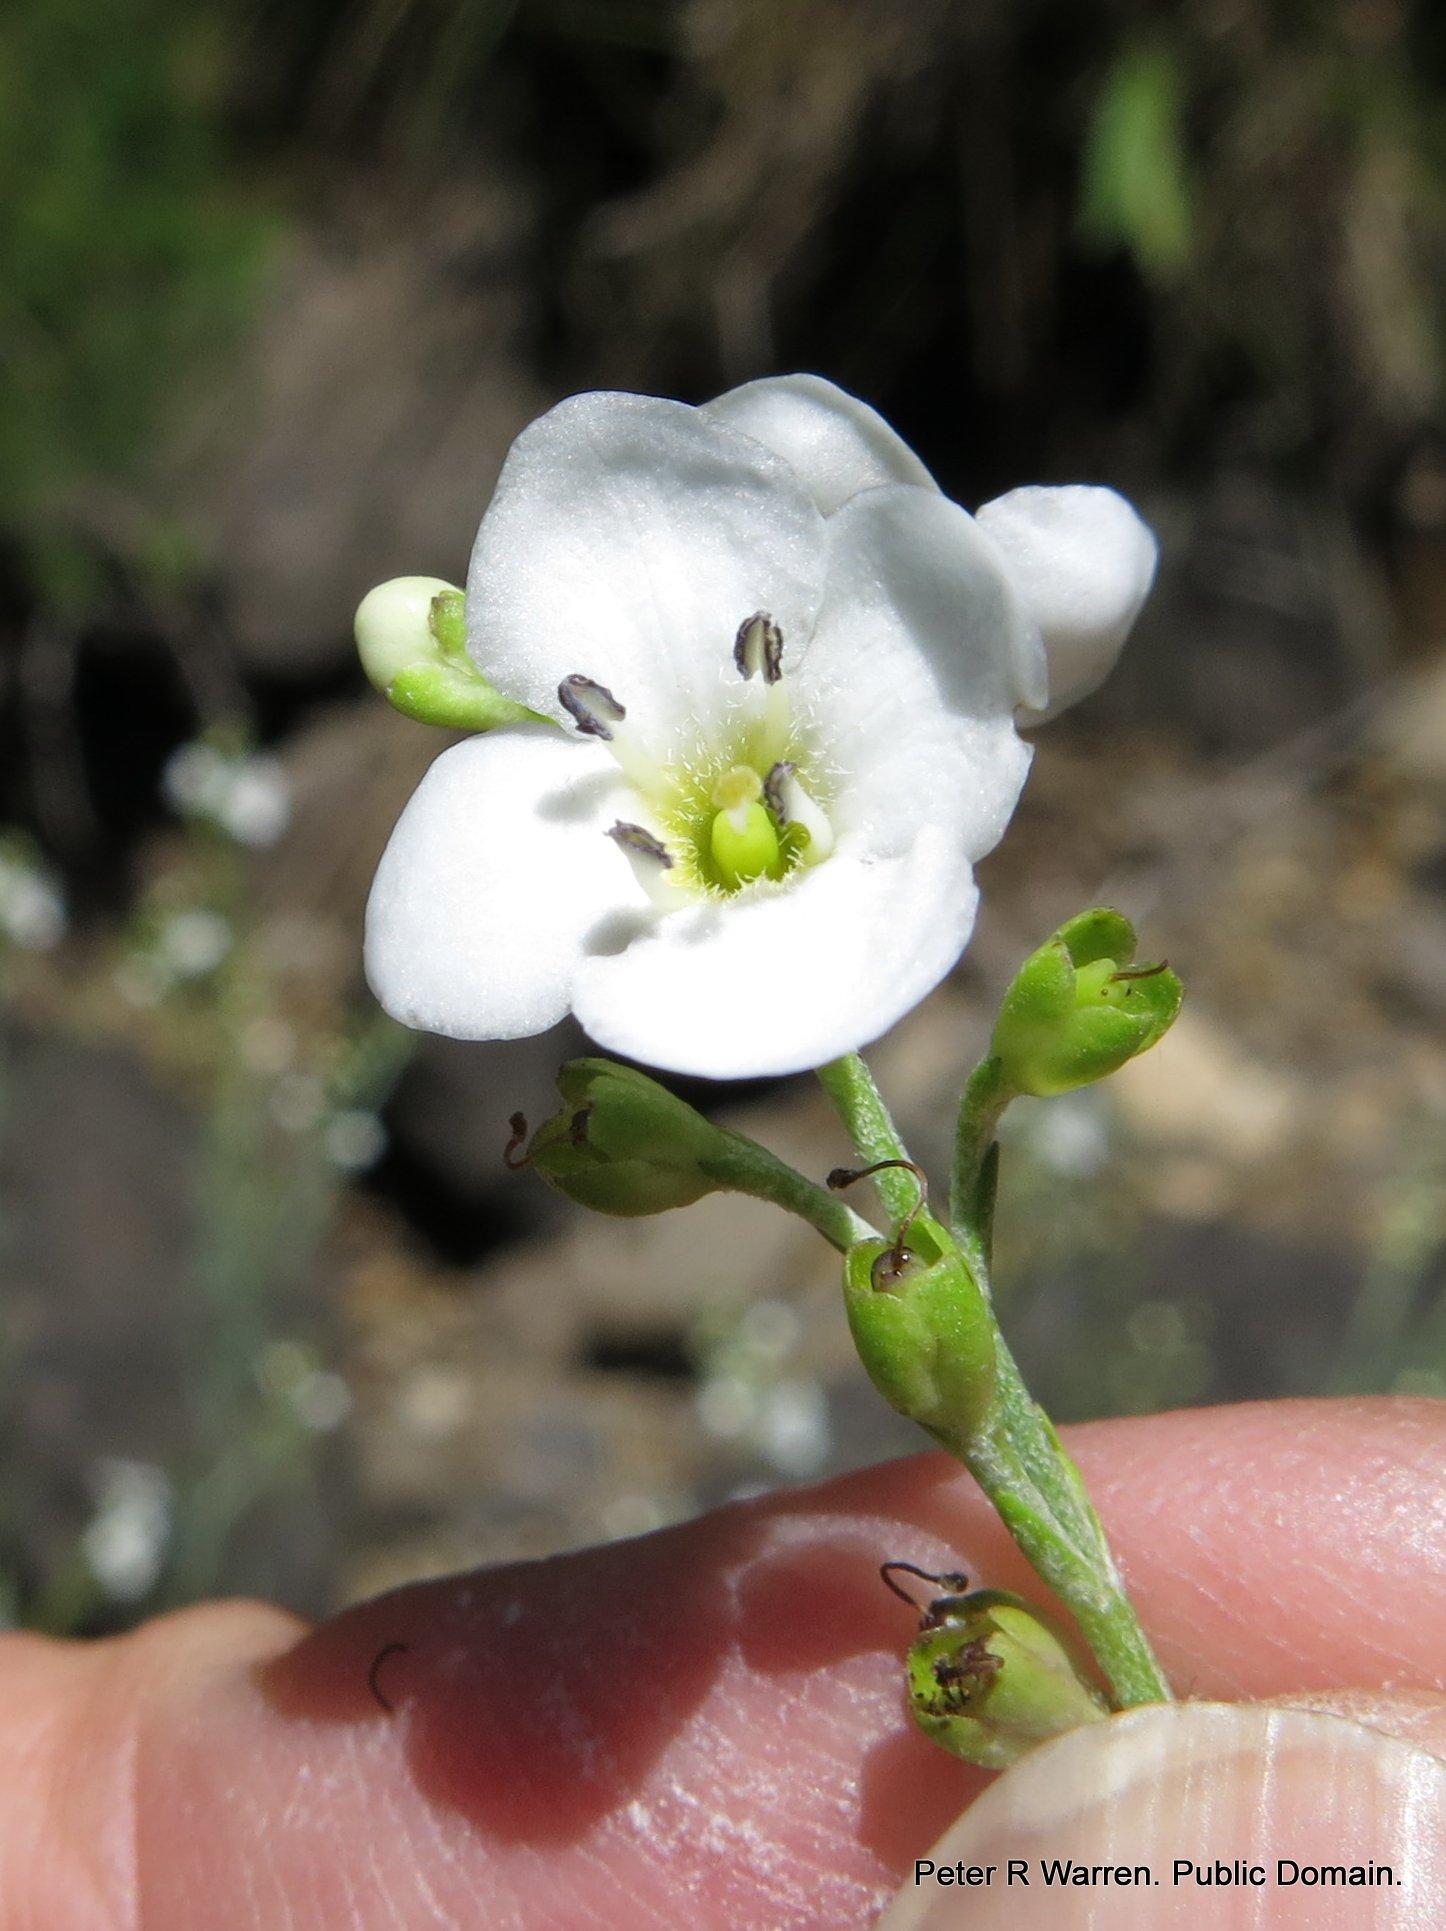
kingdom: Plantae
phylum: Tracheophyta
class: Magnoliopsida
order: Lamiales
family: Scrophulariaceae
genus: Buddleja
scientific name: Buddleja virgata
